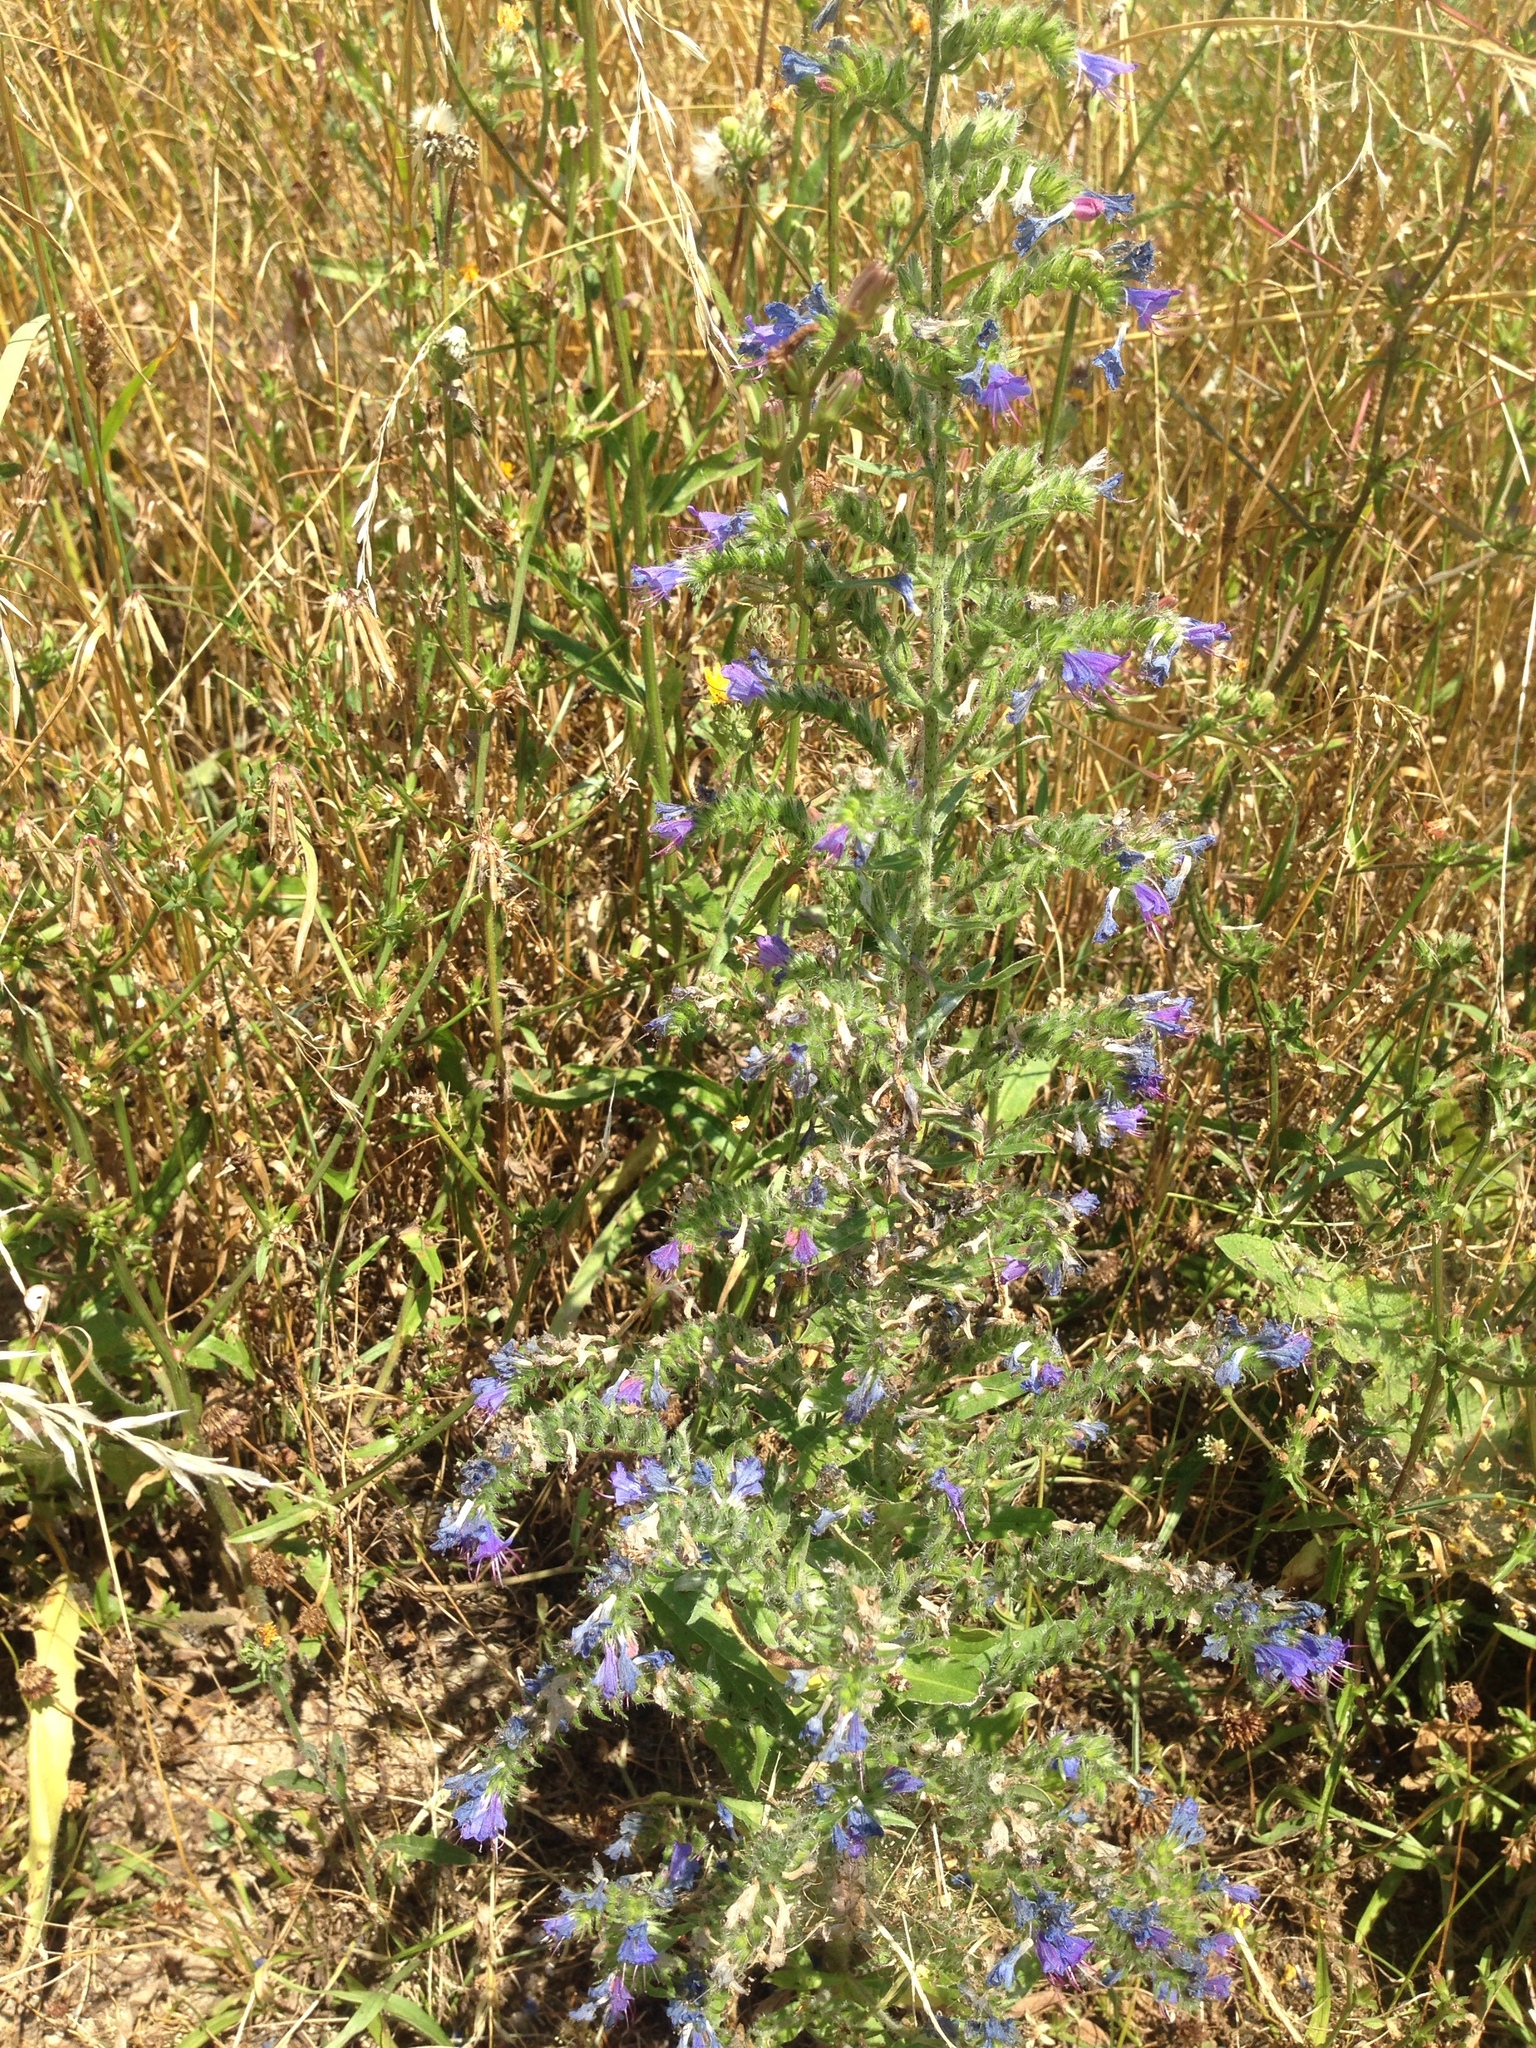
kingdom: Plantae
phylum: Tracheophyta
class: Magnoliopsida
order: Boraginales
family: Boraginaceae
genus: Echium
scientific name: Echium vulgare
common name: Common viper's bugloss
